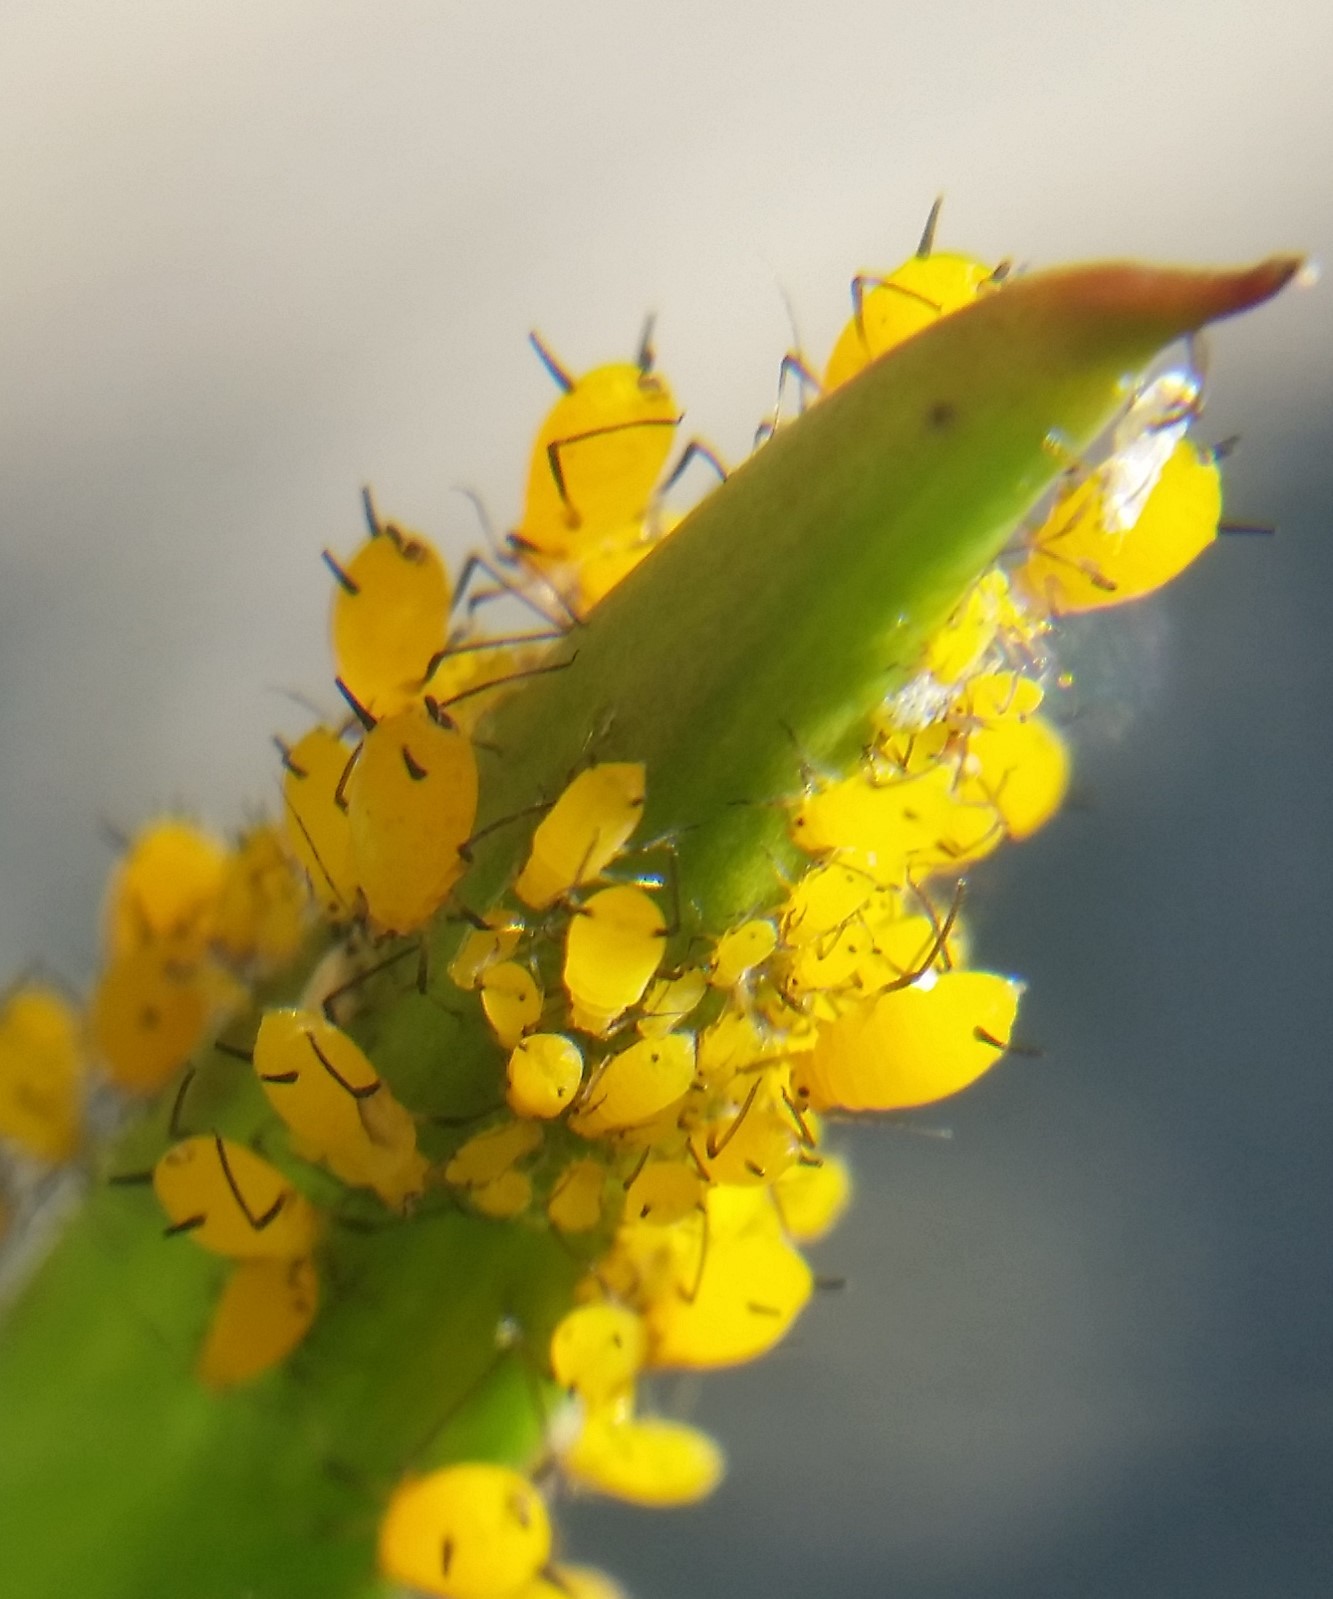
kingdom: Animalia
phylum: Arthropoda
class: Insecta
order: Hemiptera
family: Aphididae
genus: Aphis
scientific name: Aphis nerii
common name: Oleander aphid
